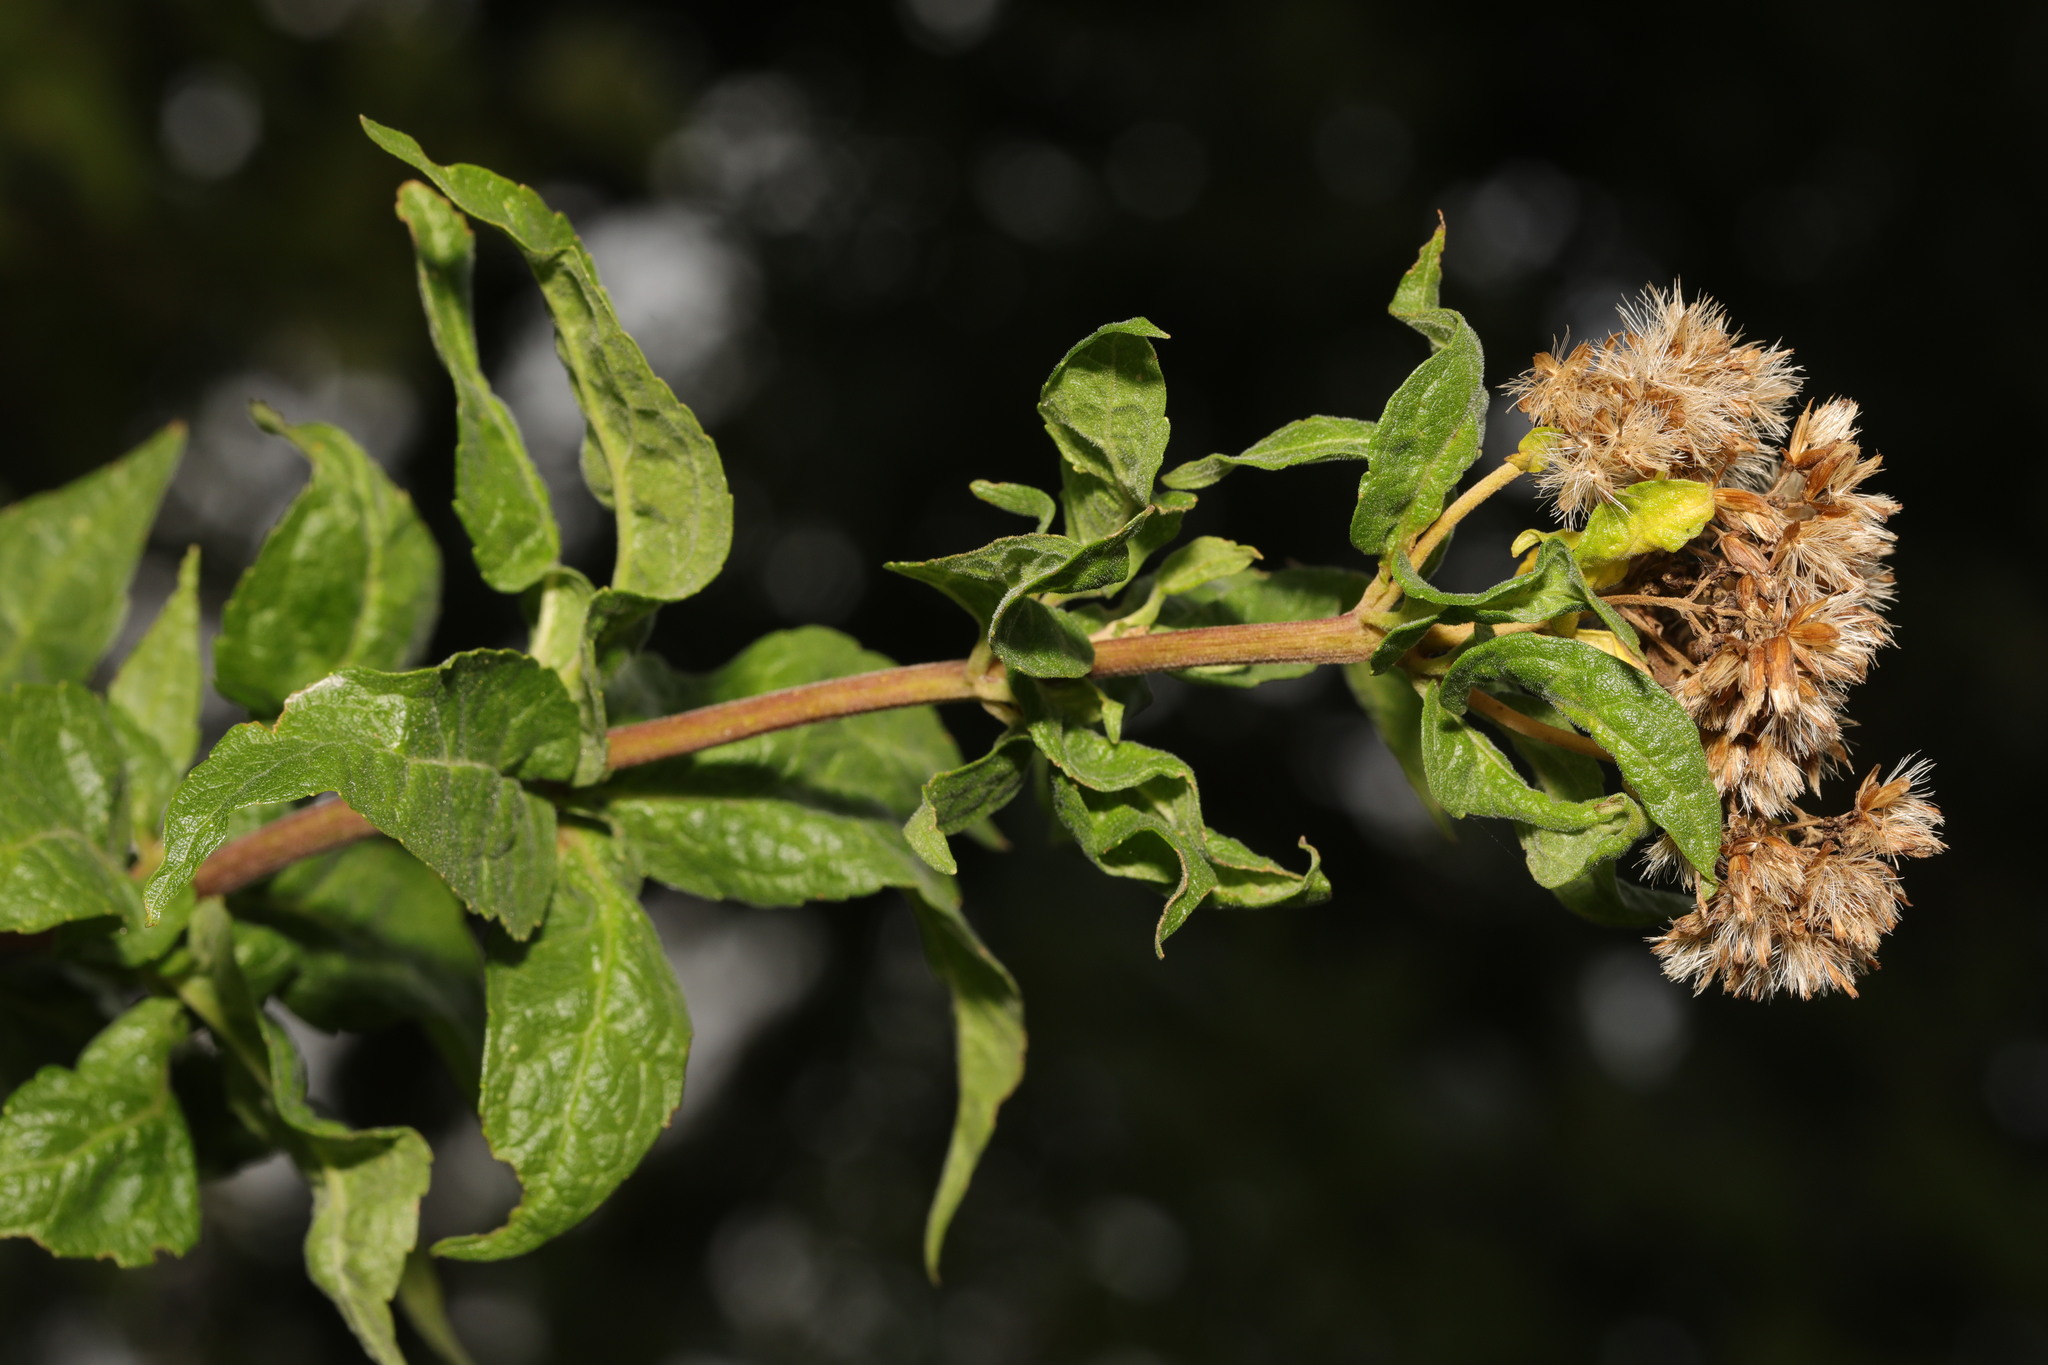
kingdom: Plantae
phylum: Tracheophyta
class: Magnoliopsida
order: Asterales
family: Asteraceae
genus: Eupatorium
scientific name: Eupatorium cannabinum
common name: Hemp-agrimony
